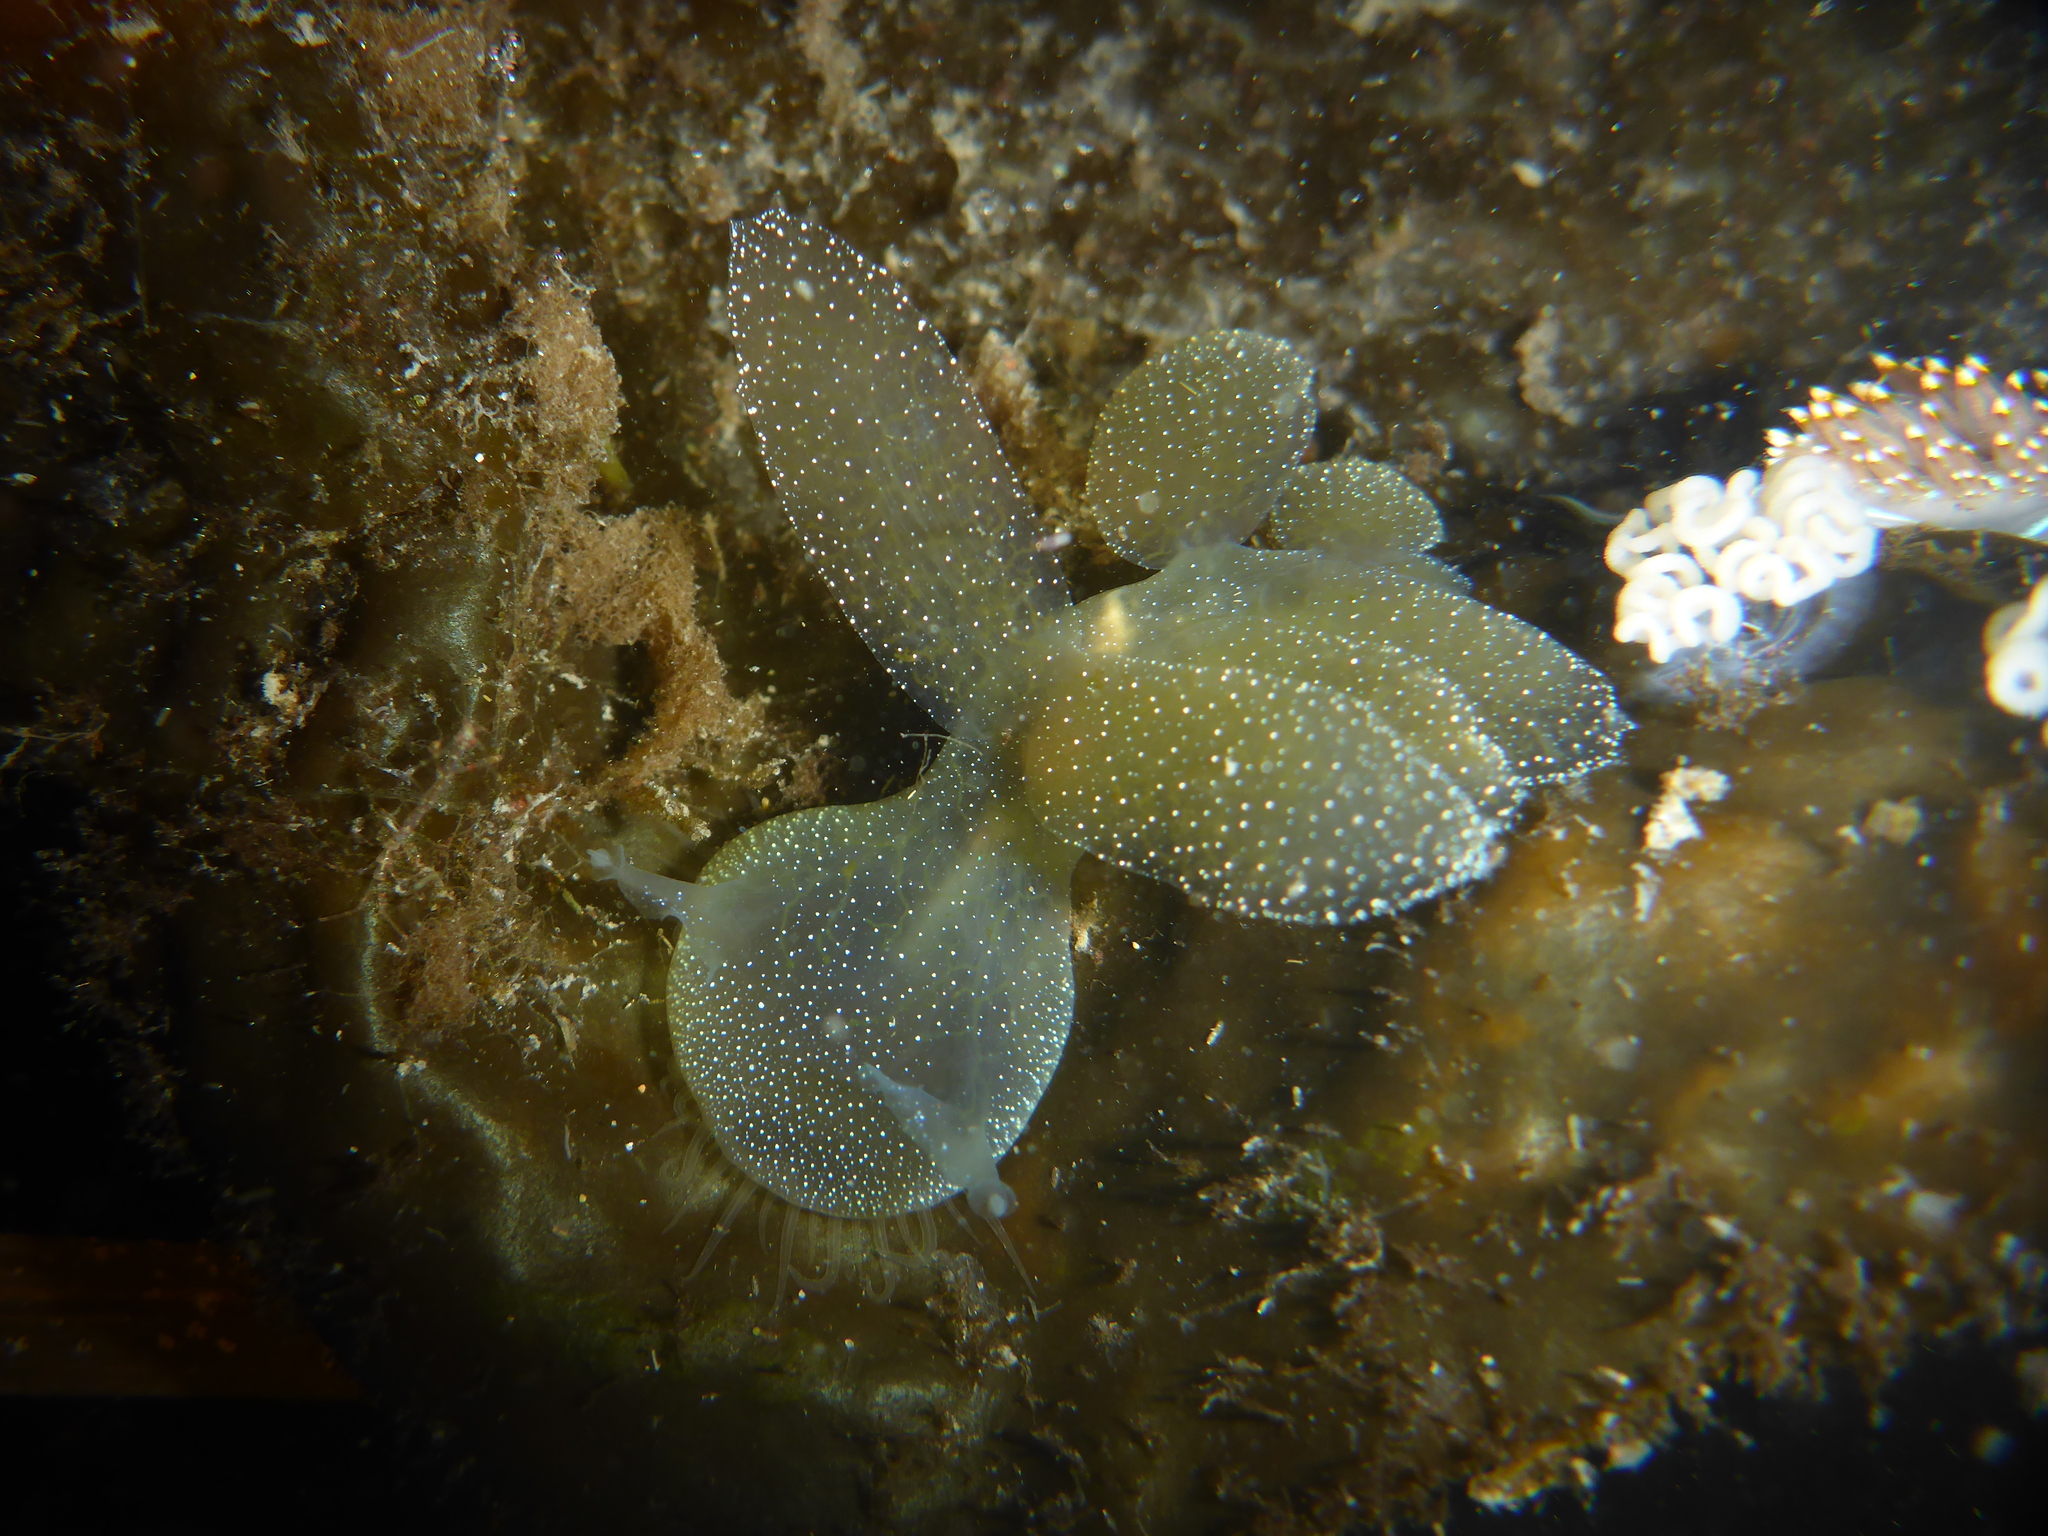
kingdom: Animalia
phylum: Mollusca
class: Gastropoda
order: Nudibranchia
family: Tethydidae
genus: Melibe
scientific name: Melibe leonina
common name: Lion nudibranch
